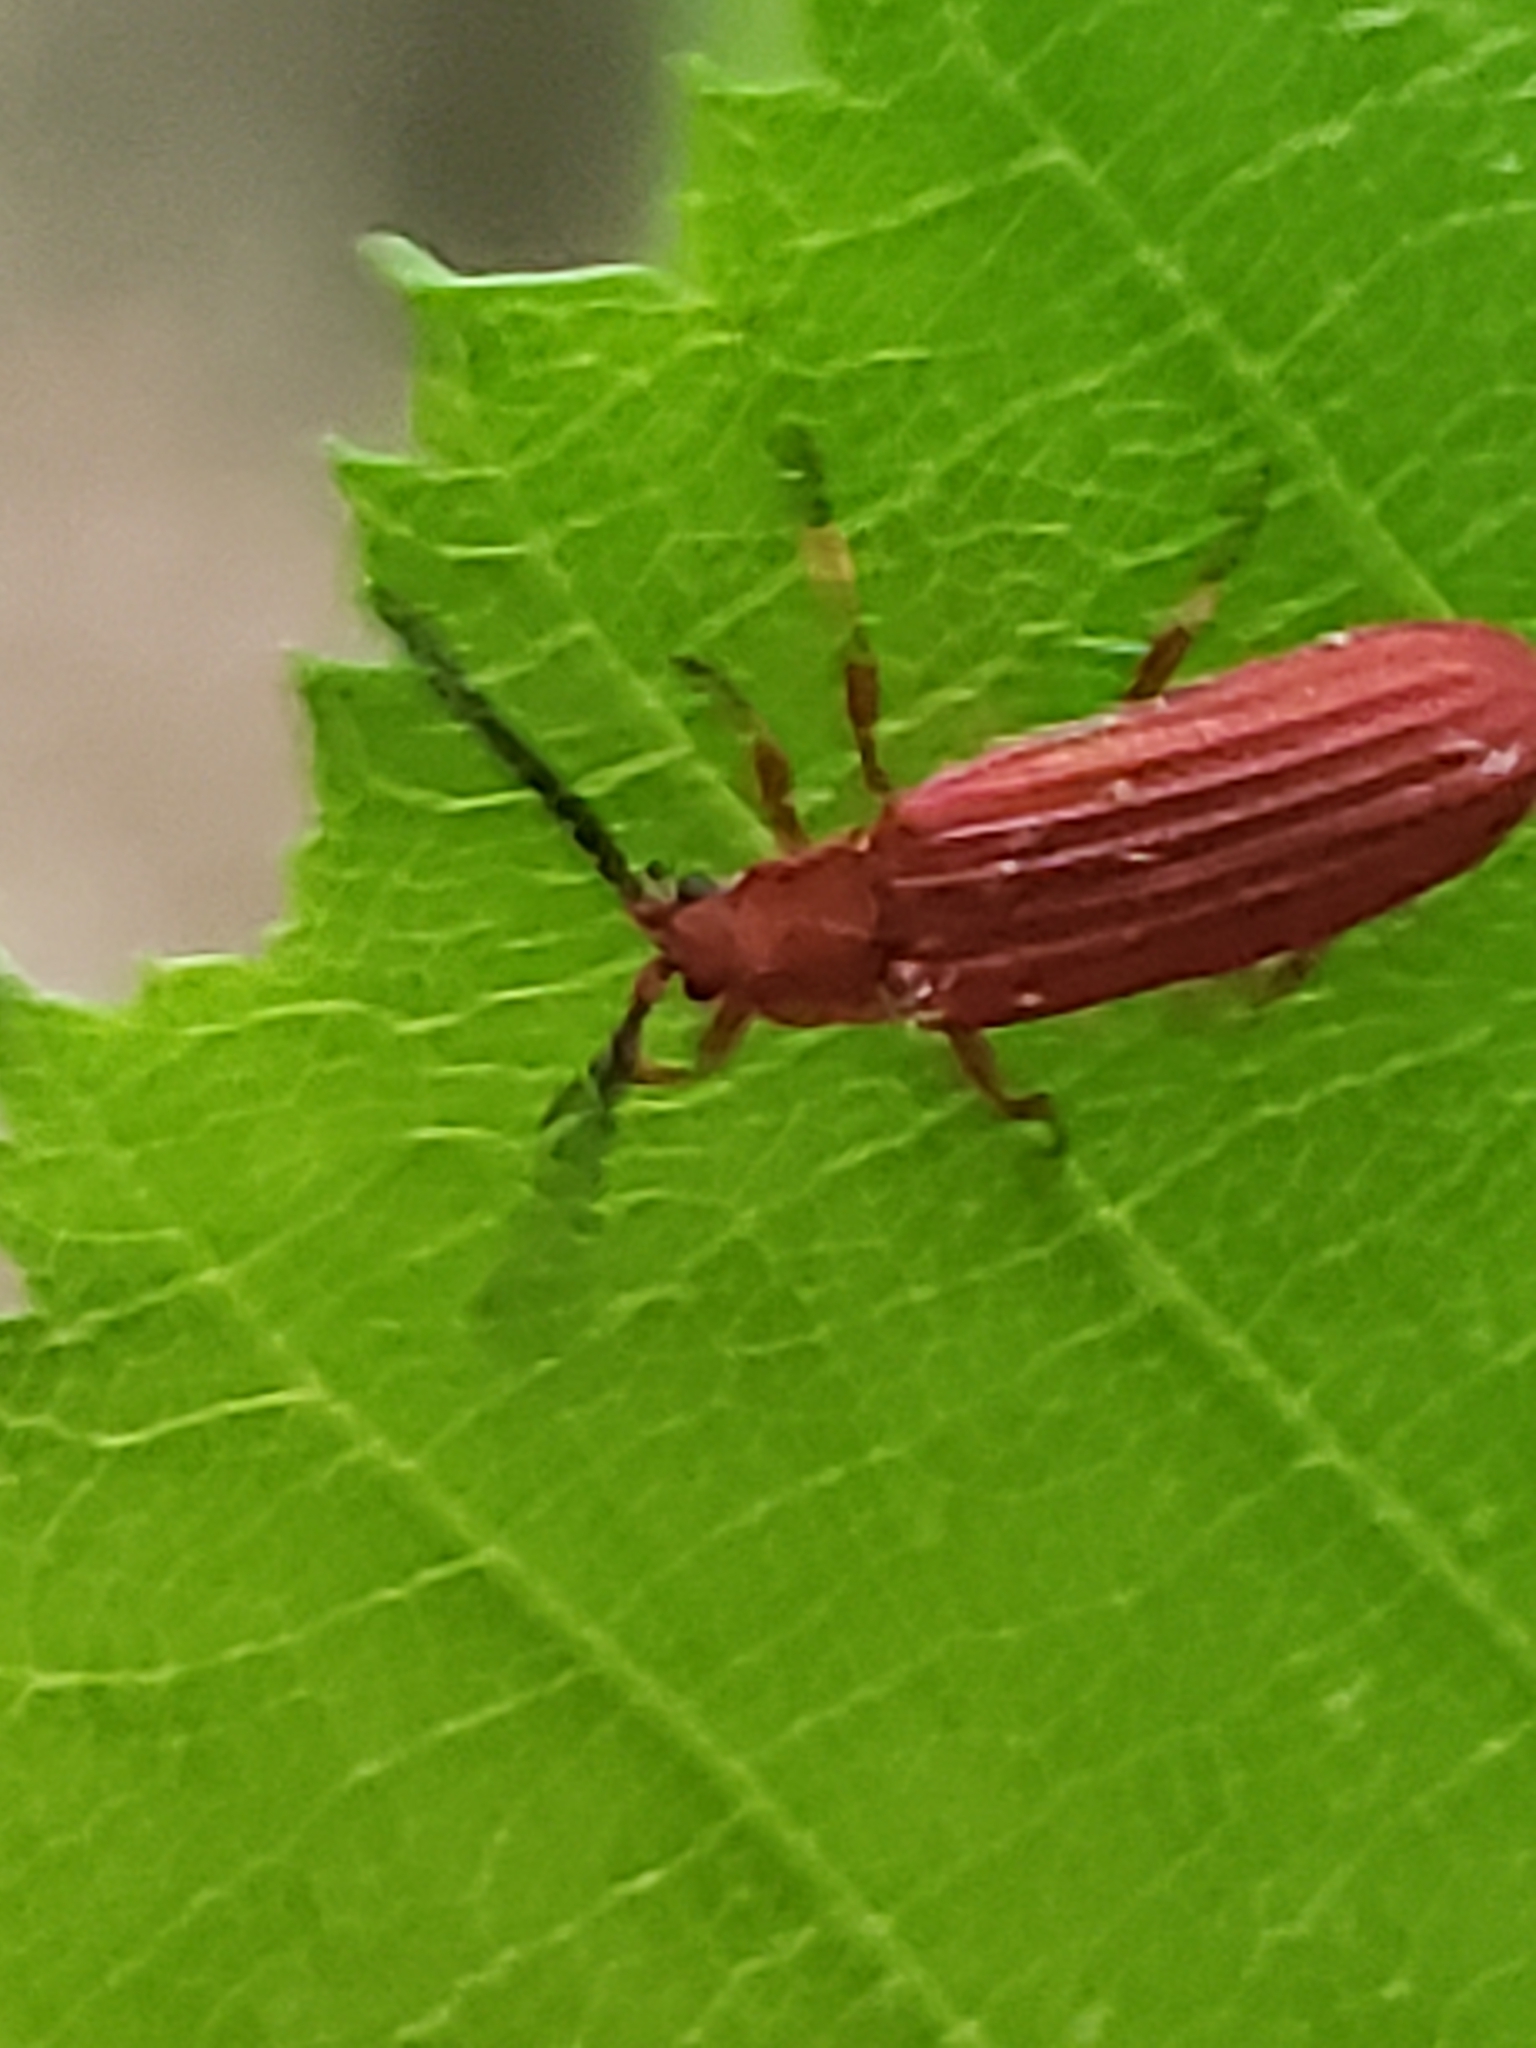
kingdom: Animalia
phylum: Arthropoda
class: Insecta
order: Coleoptera
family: Lycidae
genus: Punicealis
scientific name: Punicealis
